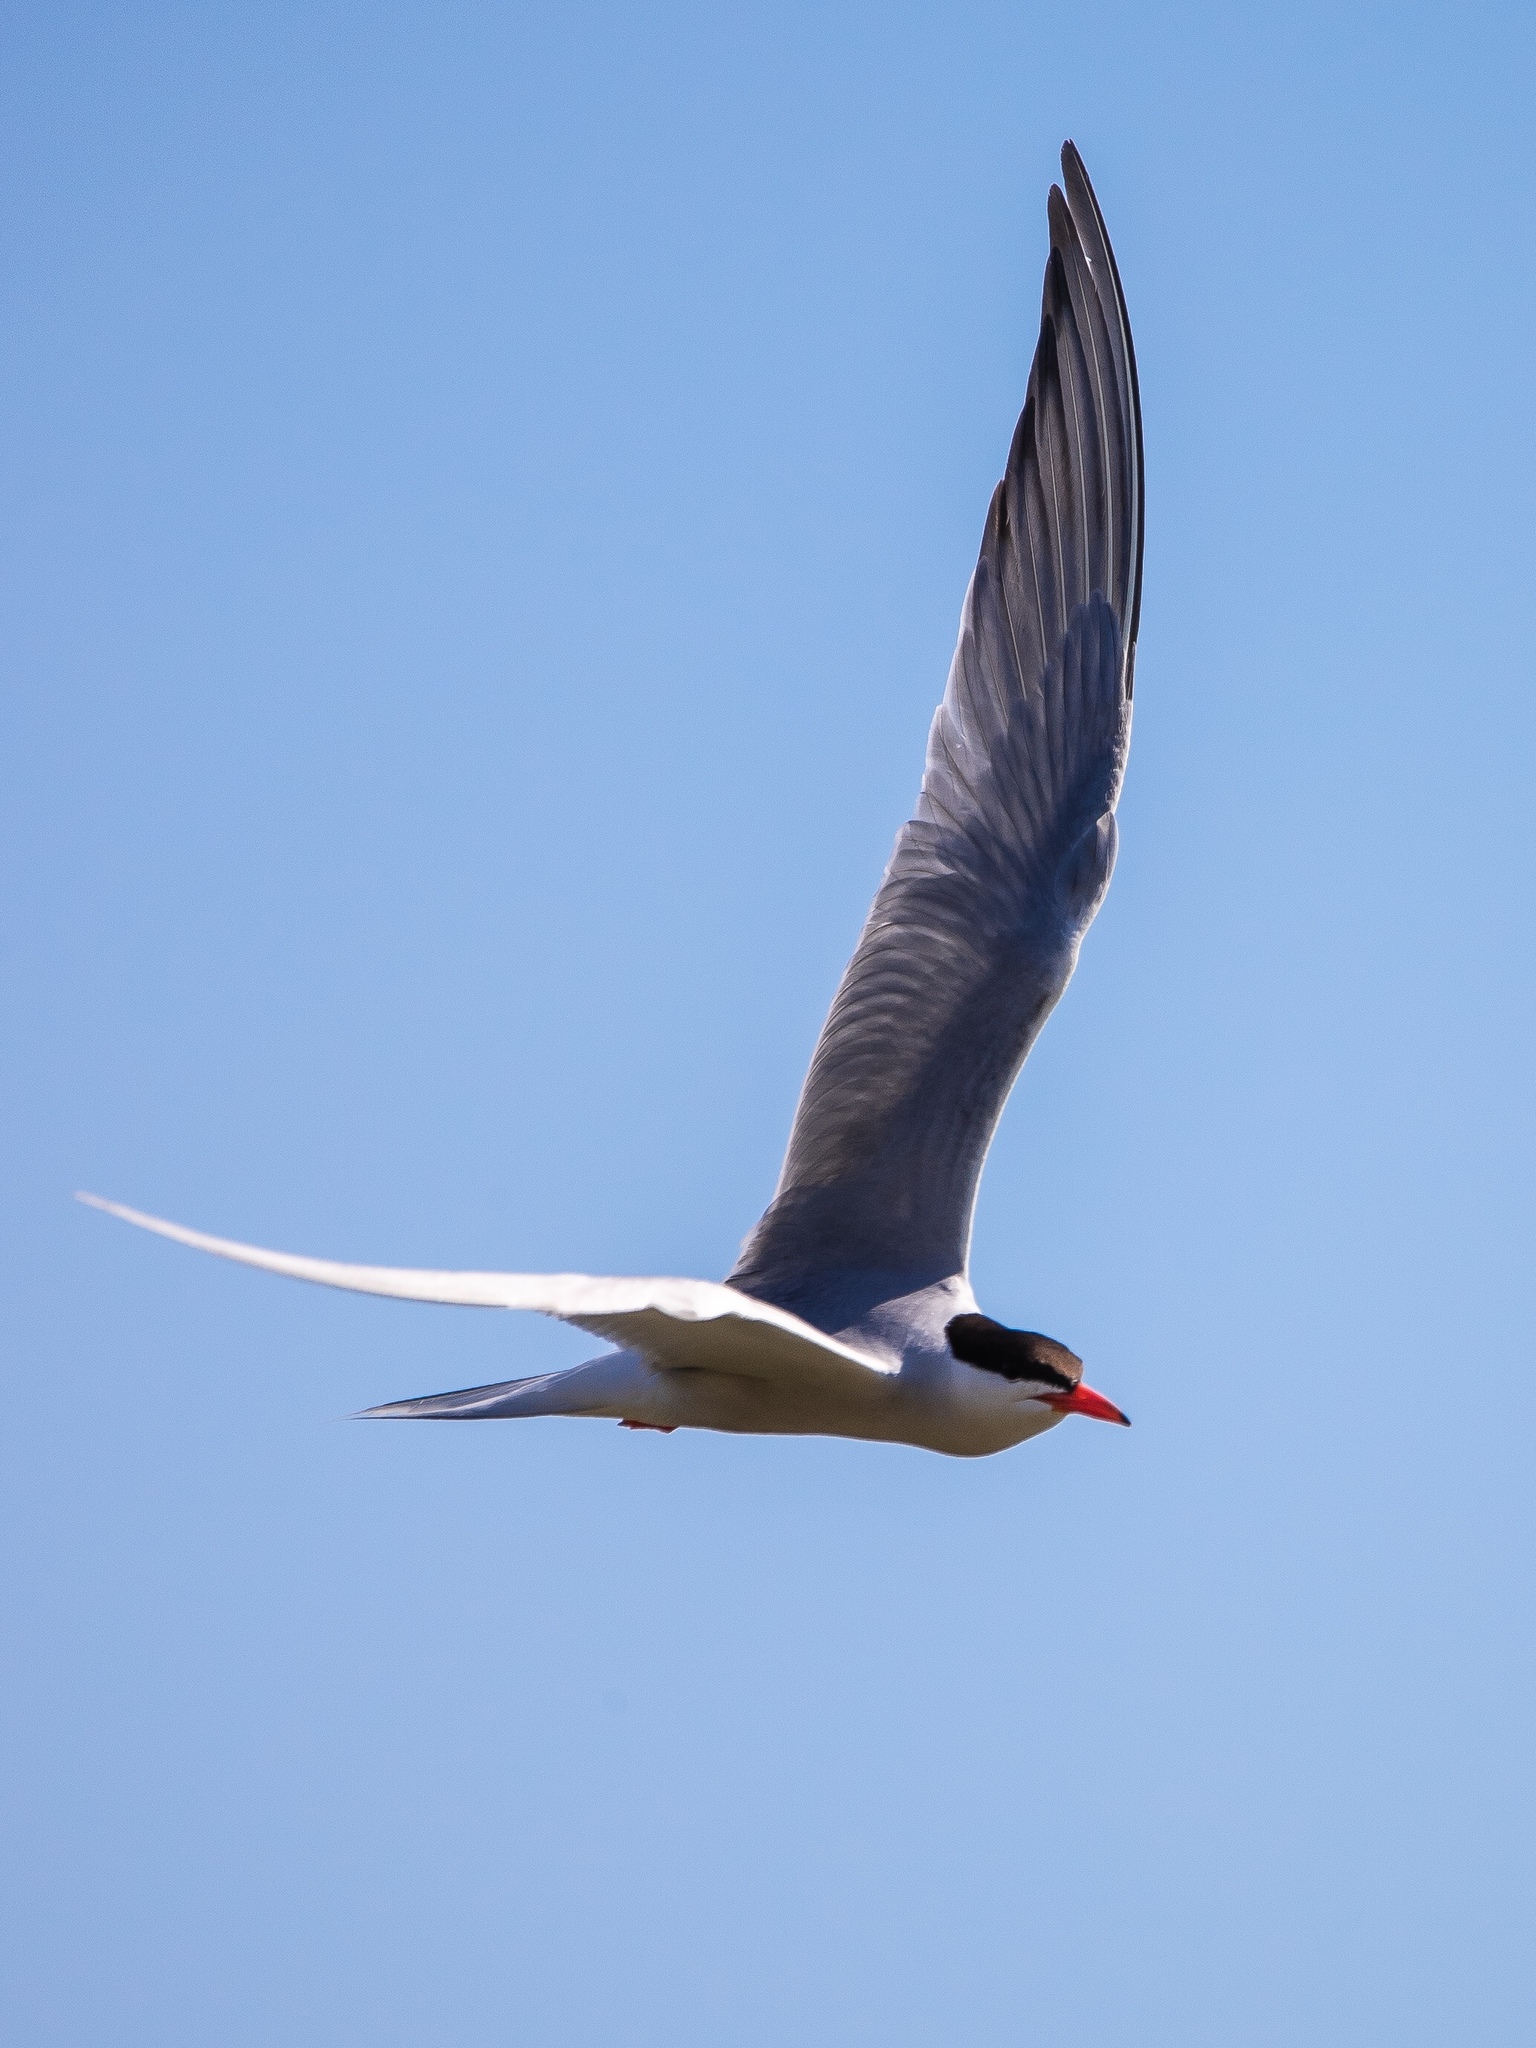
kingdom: Animalia
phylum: Chordata
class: Aves
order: Charadriiformes
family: Laridae
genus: Sterna
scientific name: Sterna hirundo
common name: Common tern
